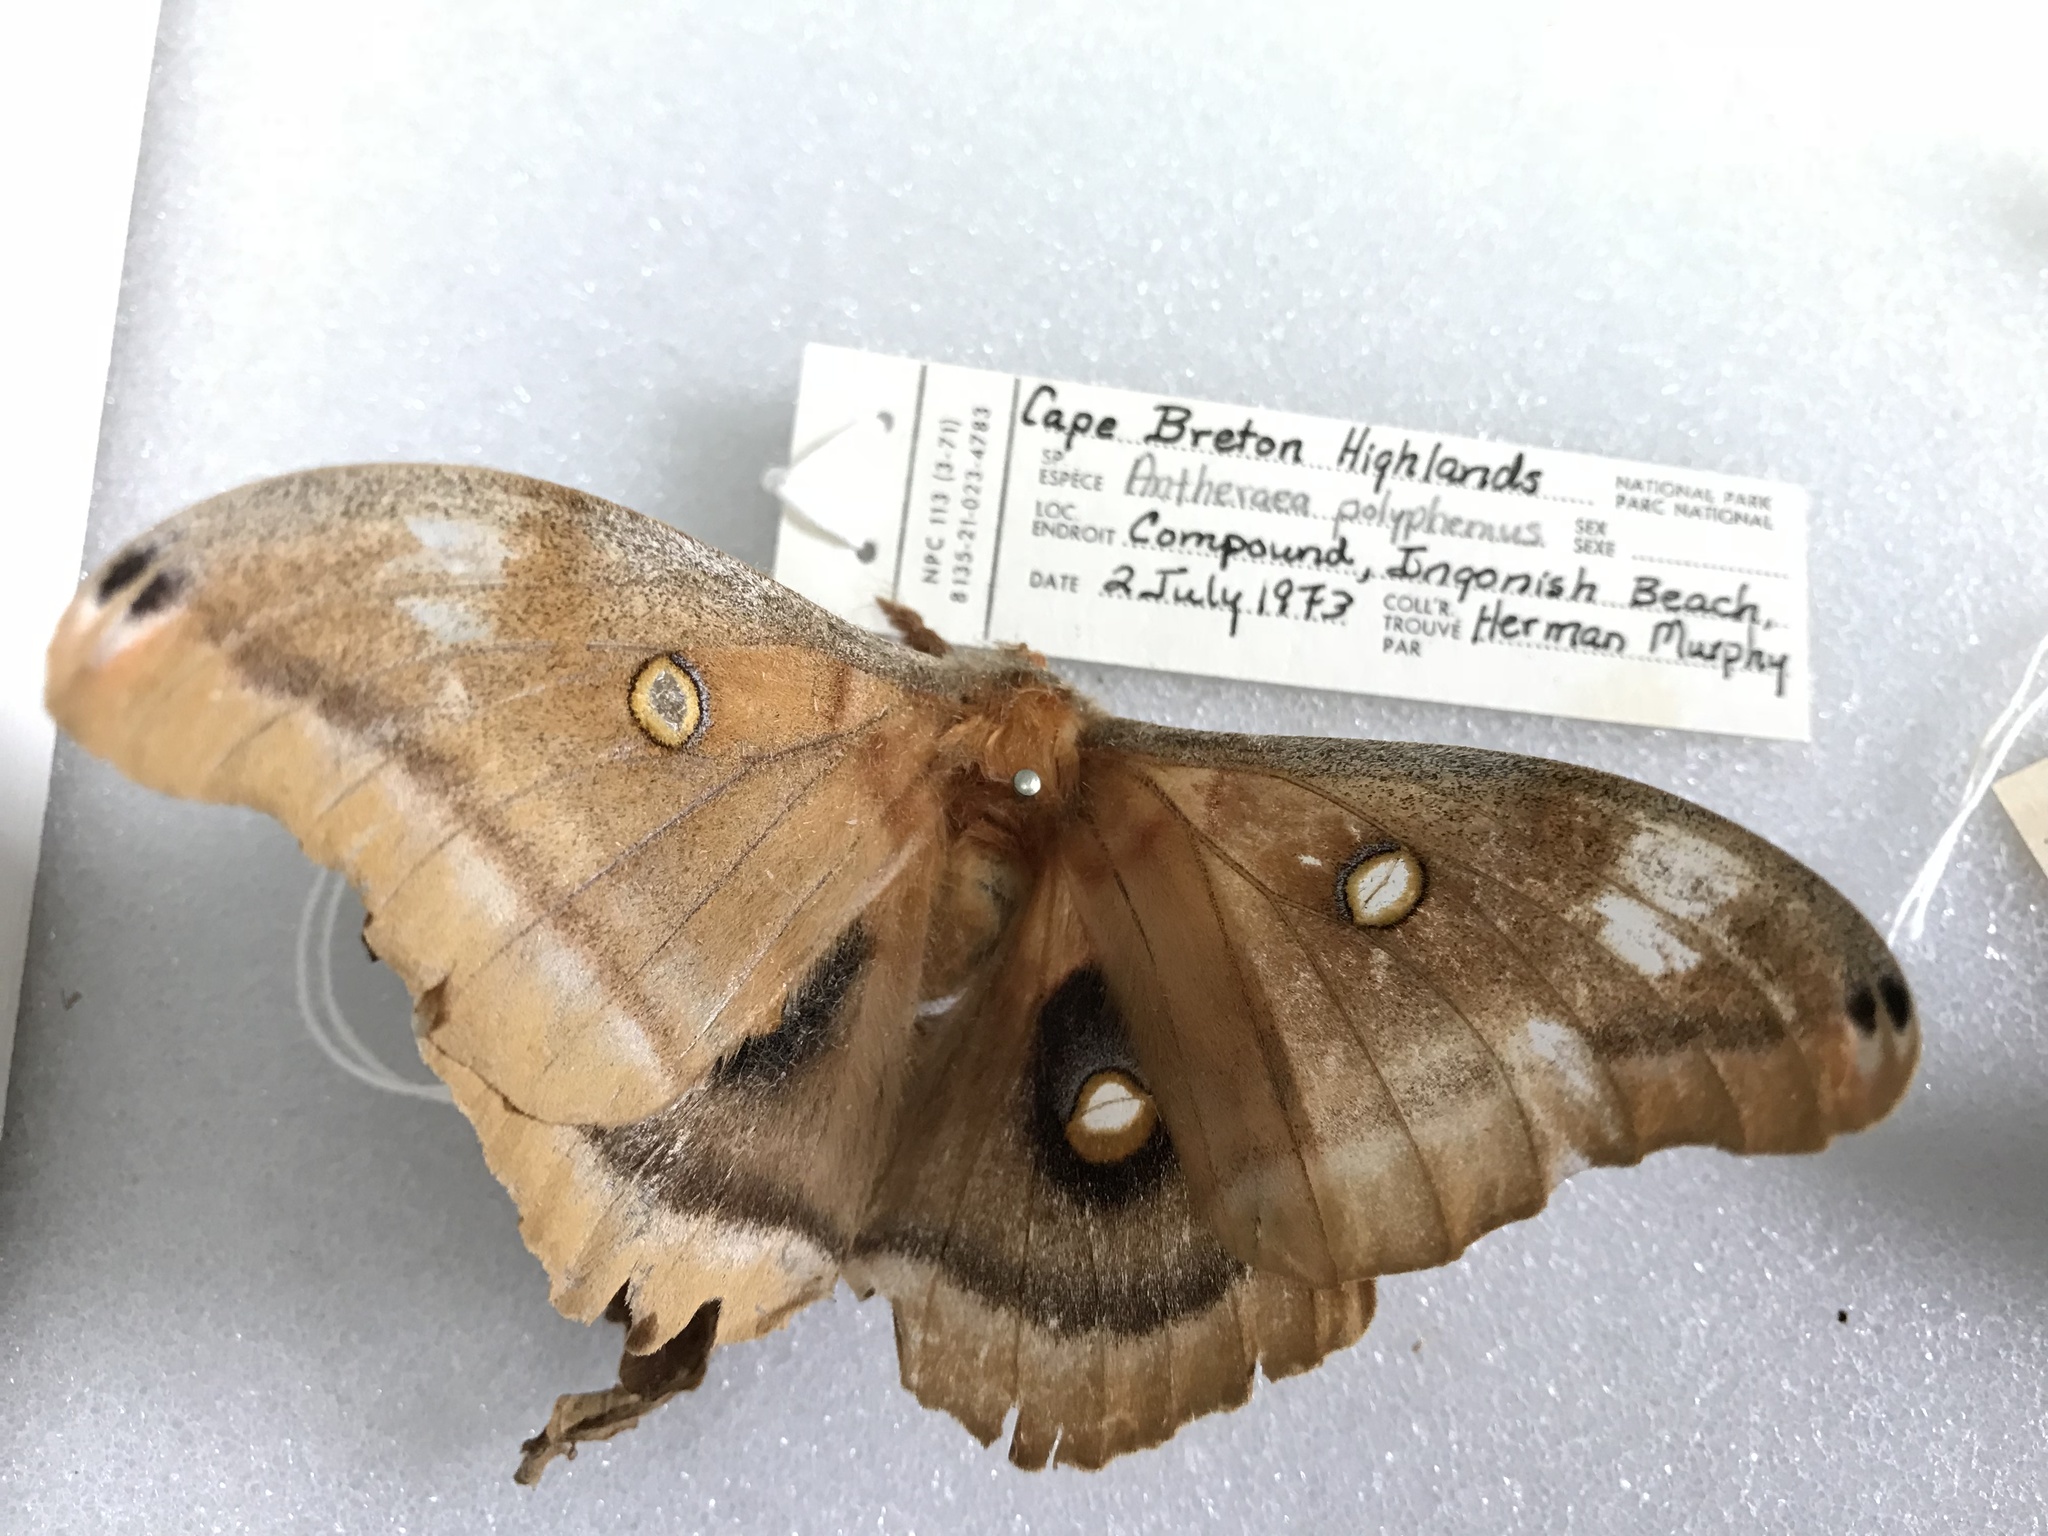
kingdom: Animalia
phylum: Arthropoda
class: Insecta
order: Lepidoptera
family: Saturniidae
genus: Antheraea
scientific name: Antheraea polyphemus
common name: Polyphemus moth
